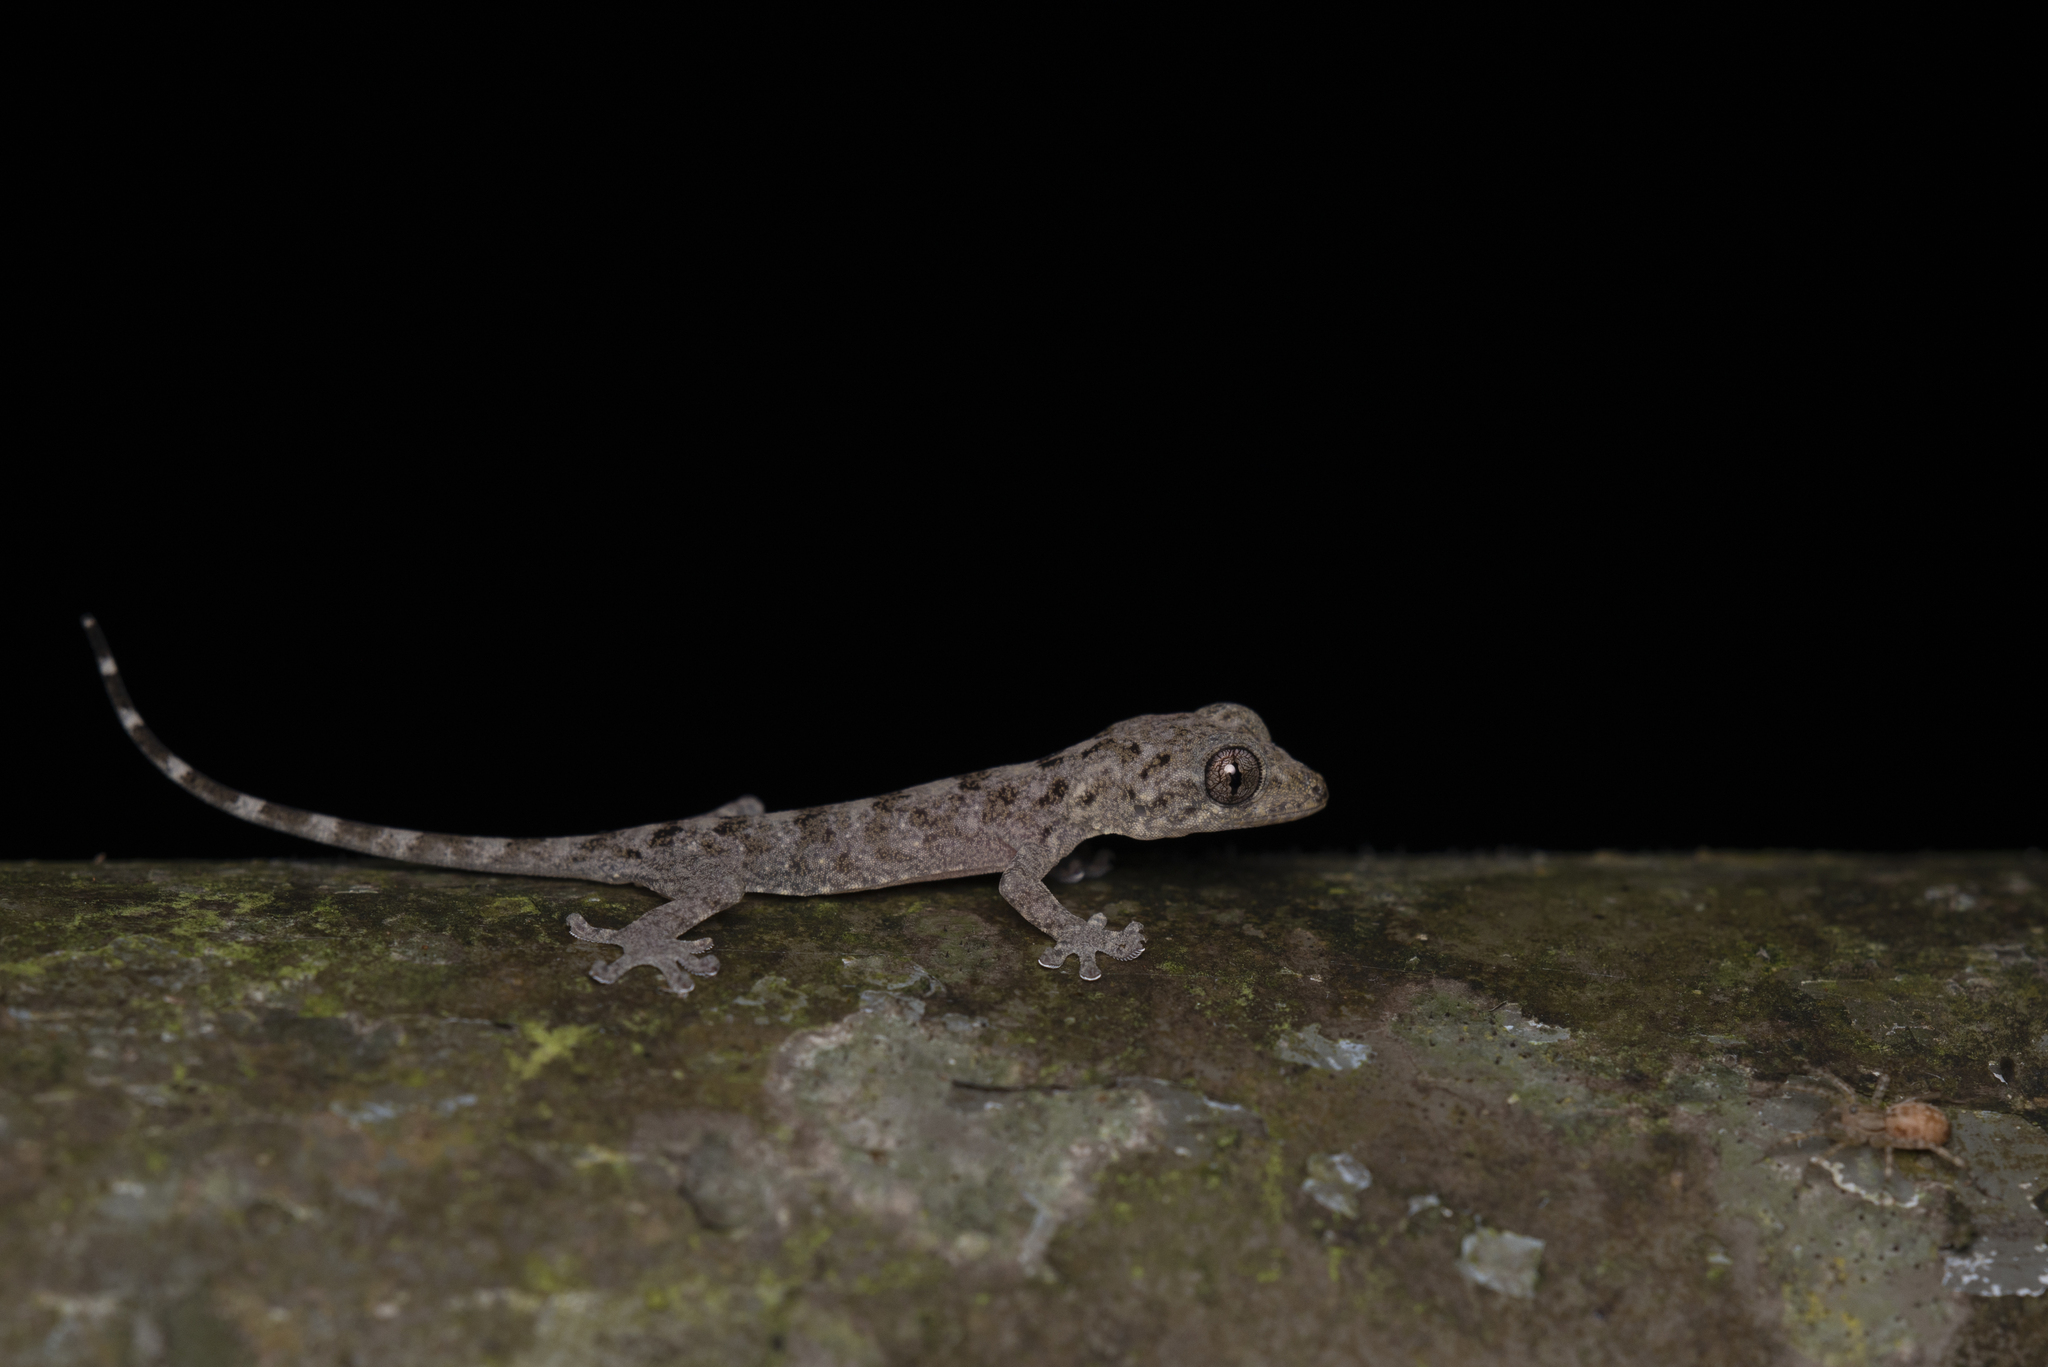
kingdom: Animalia
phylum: Chordata
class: Squamata
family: Gekkonidae
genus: Gekko
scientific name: Gekko chinensis
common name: Gray's chinese gecko
